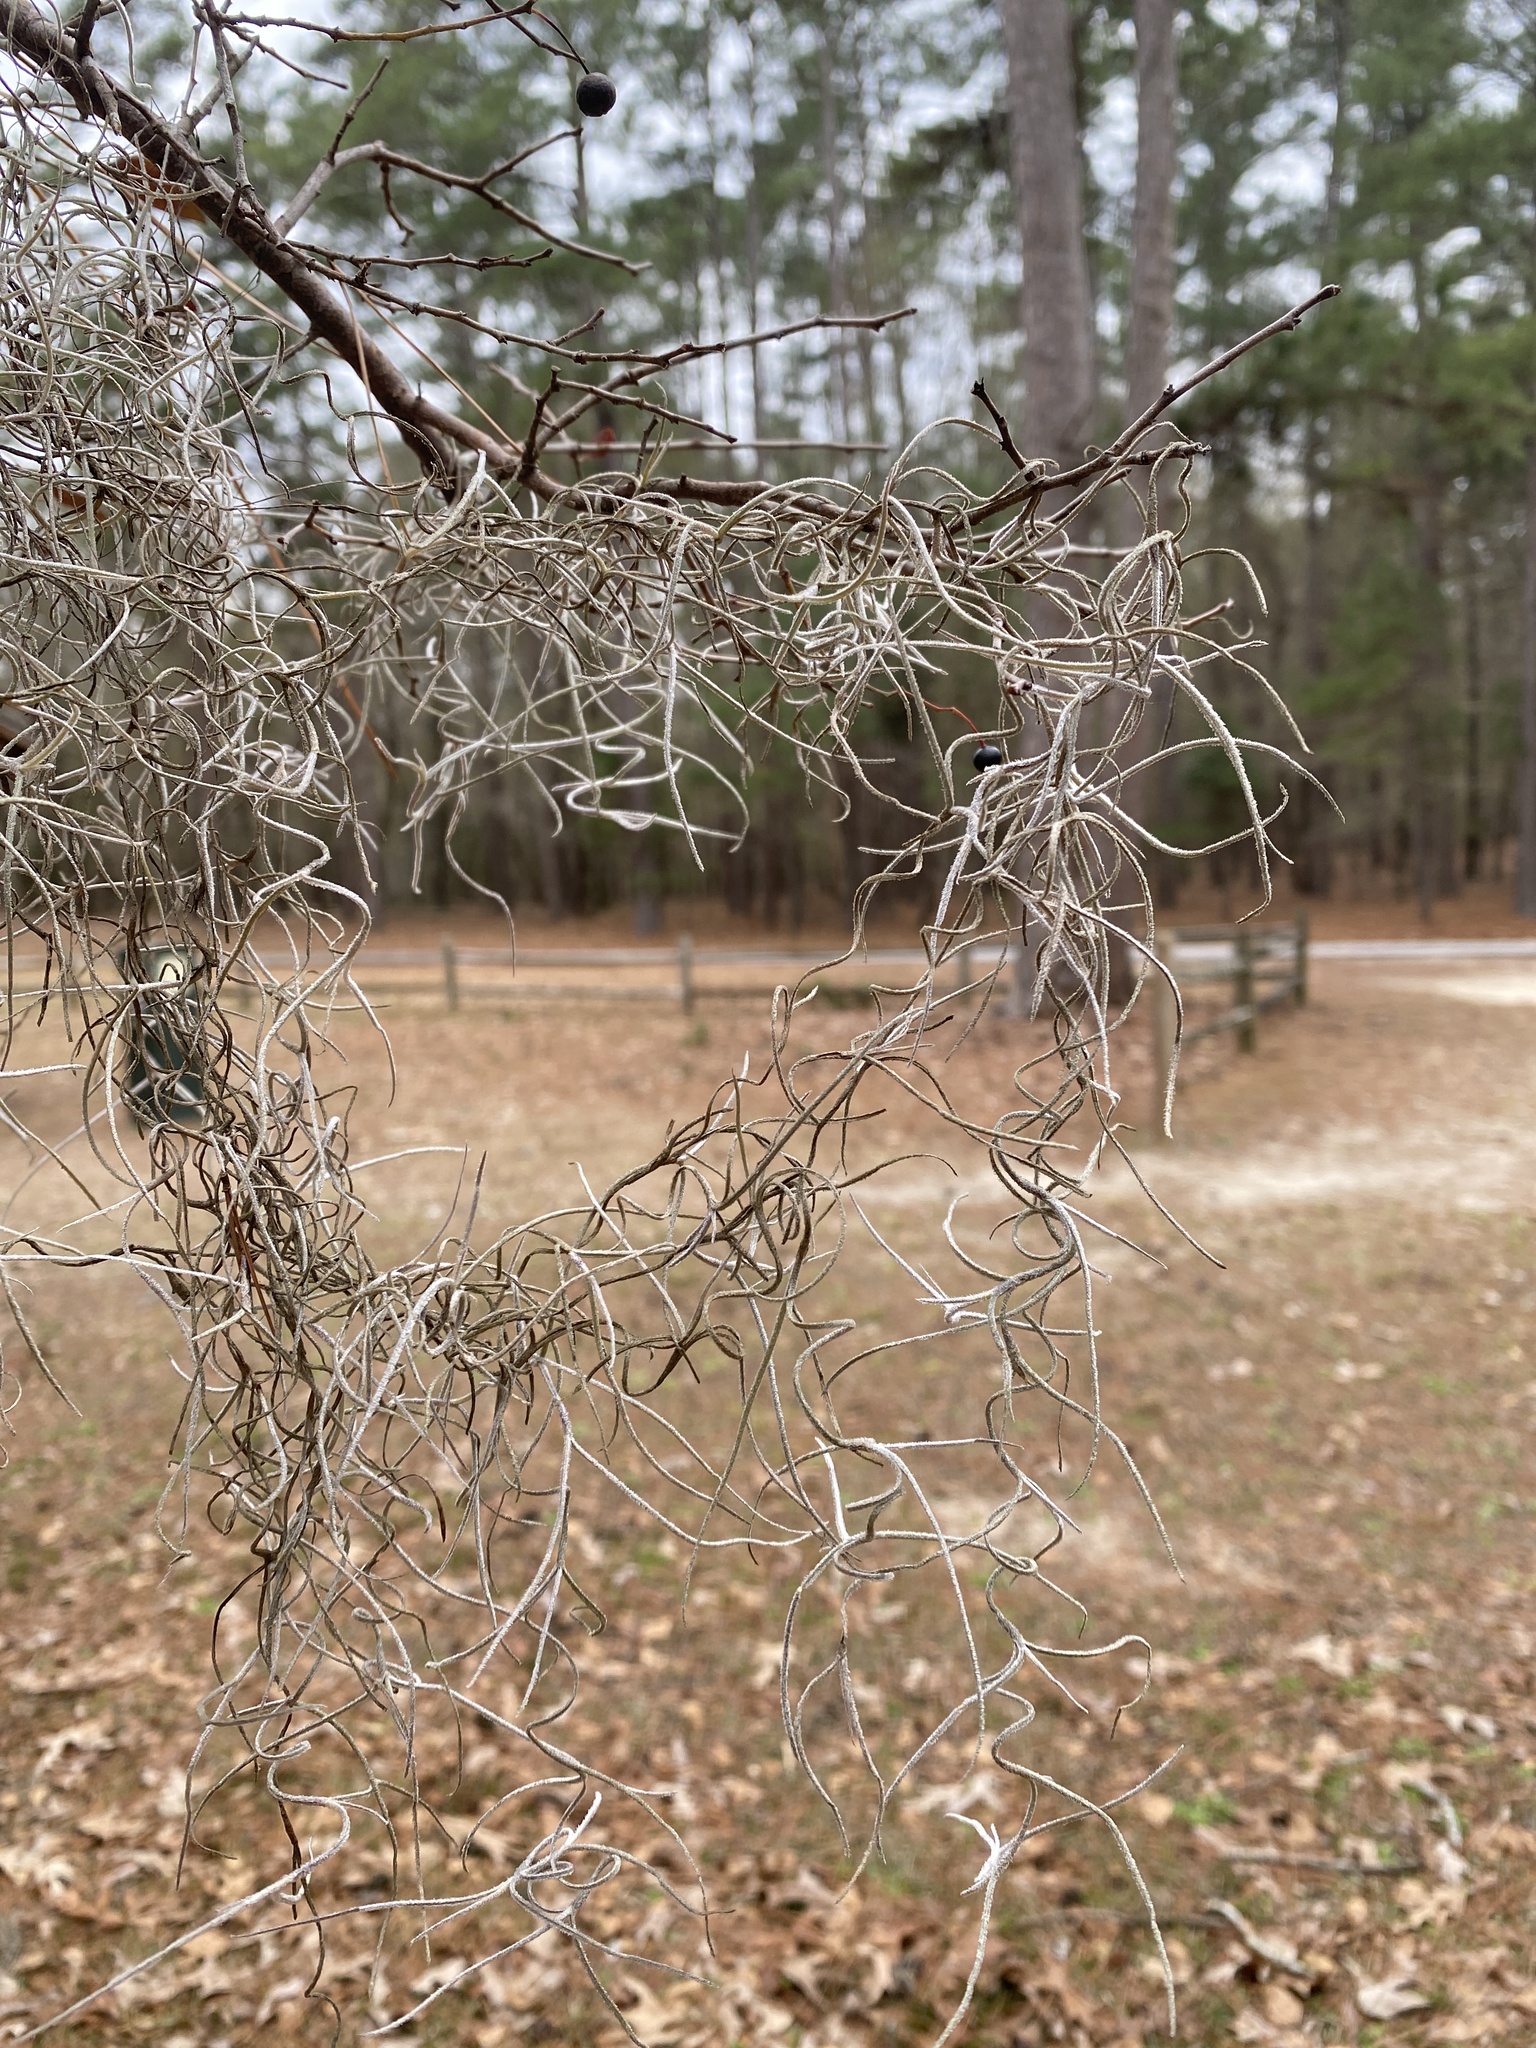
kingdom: Plantae
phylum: Tracheophyta
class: Liliopsida
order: Poales
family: Bromeliaceae
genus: Tillandsia
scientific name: Tillandsia usneoides
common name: Spanish moss
